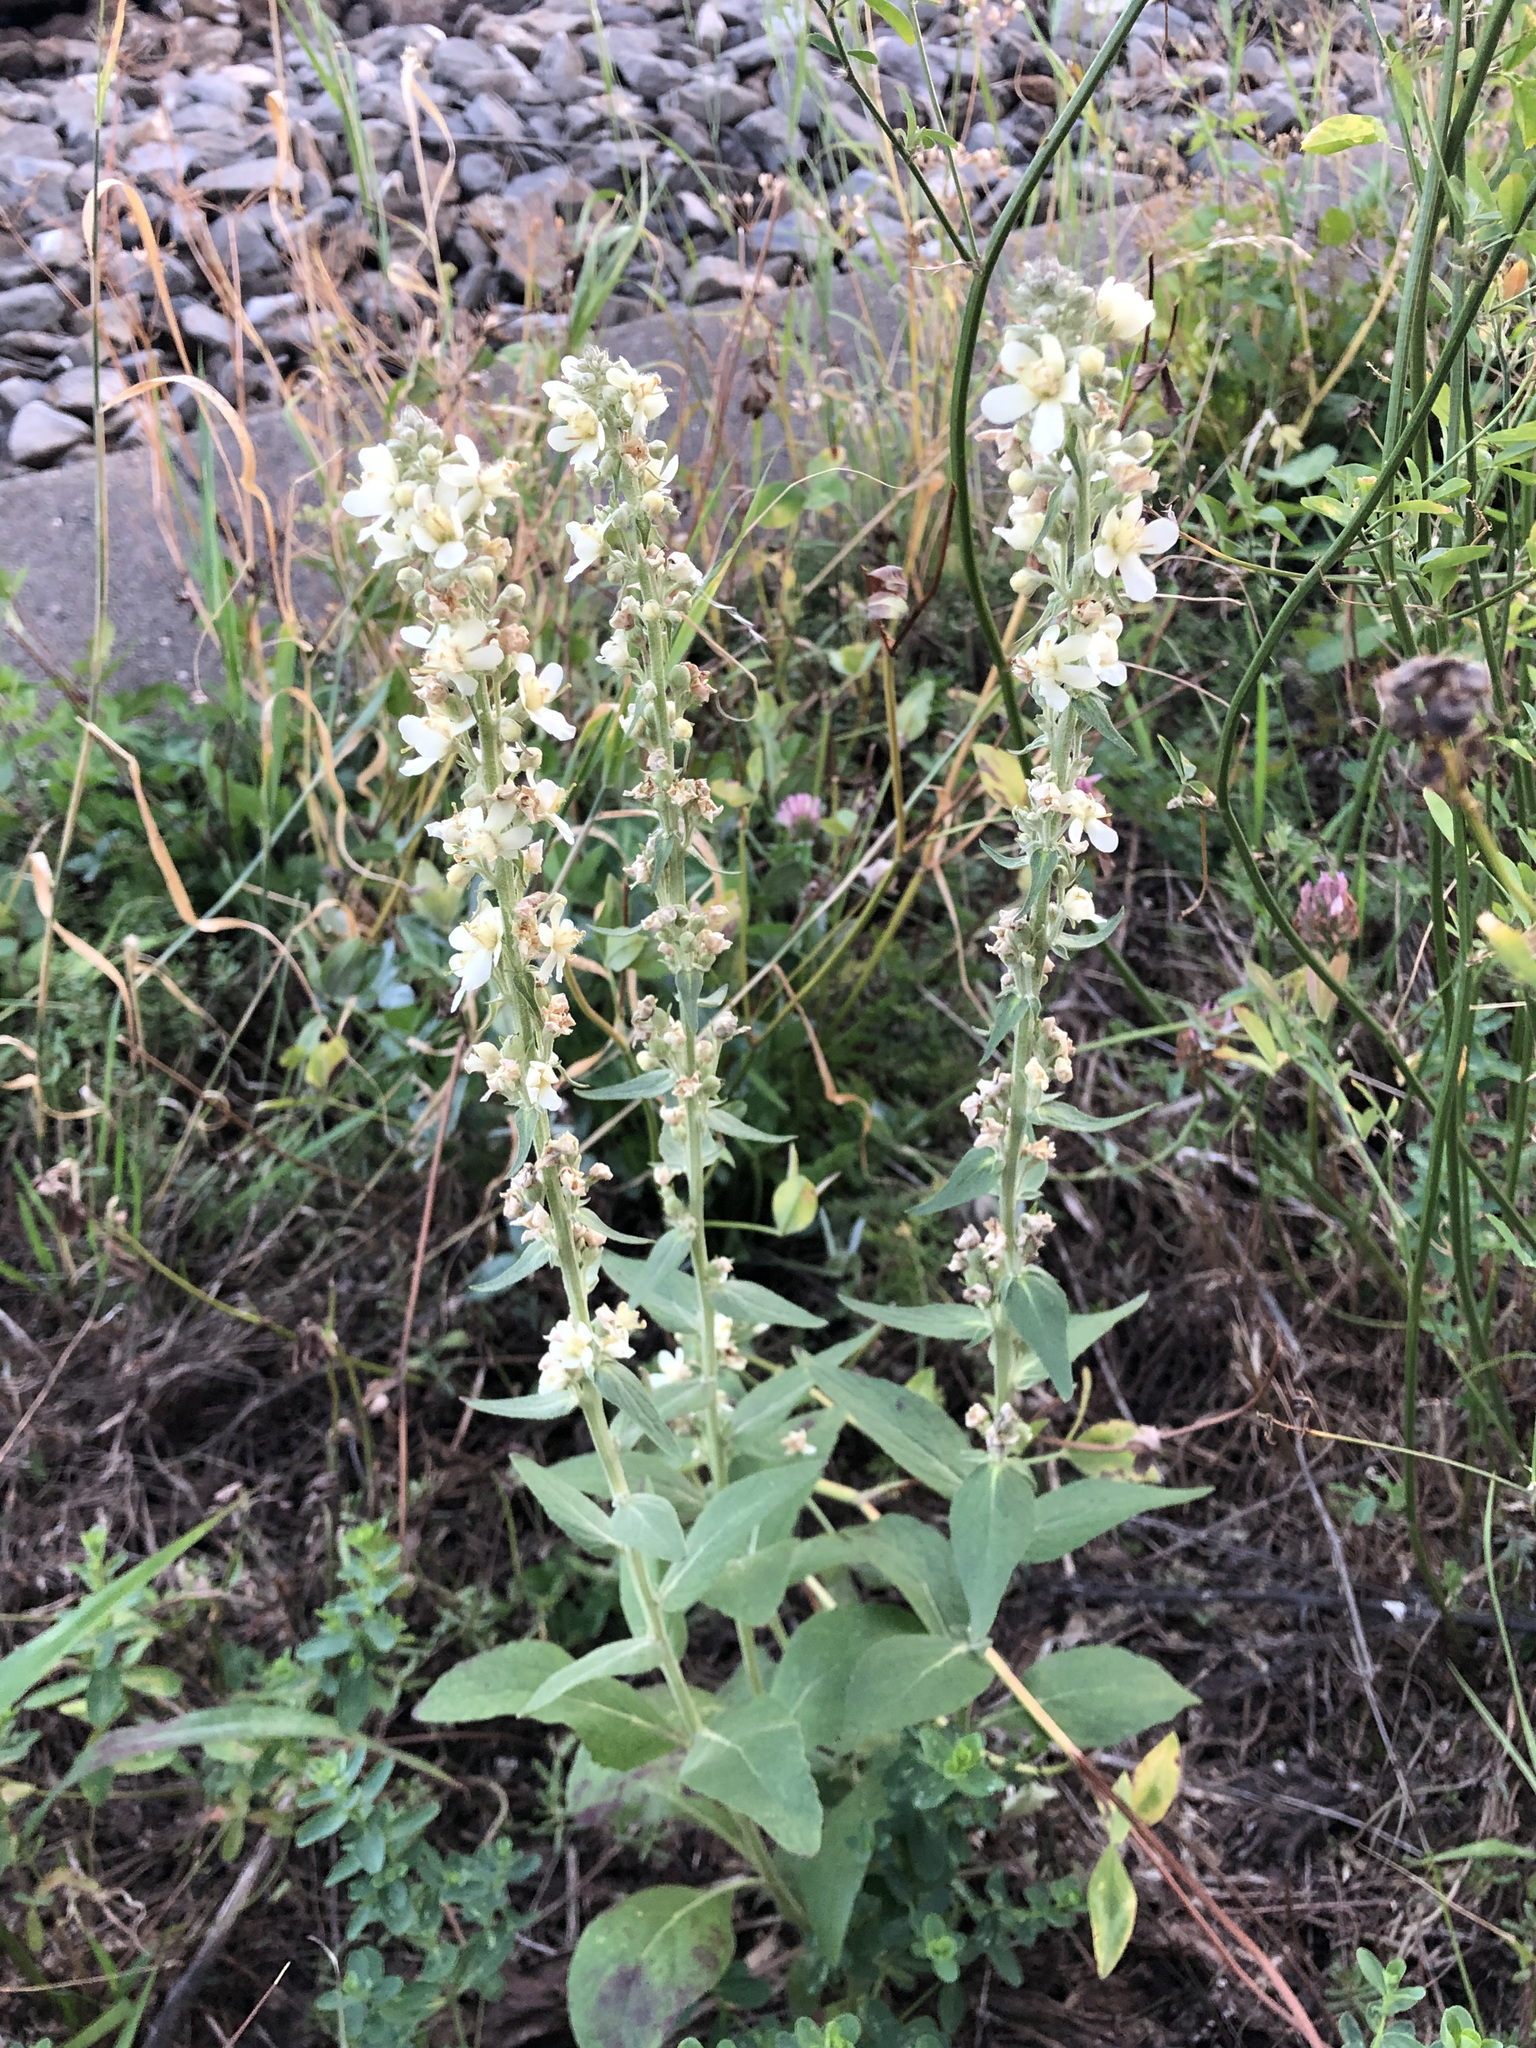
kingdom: Plantae
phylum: Tracheophyta
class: Magnoliopsida
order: Lamiales
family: Scrophulariaceae
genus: Verbascum
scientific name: Verbascum lychnitis
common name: White mullein
